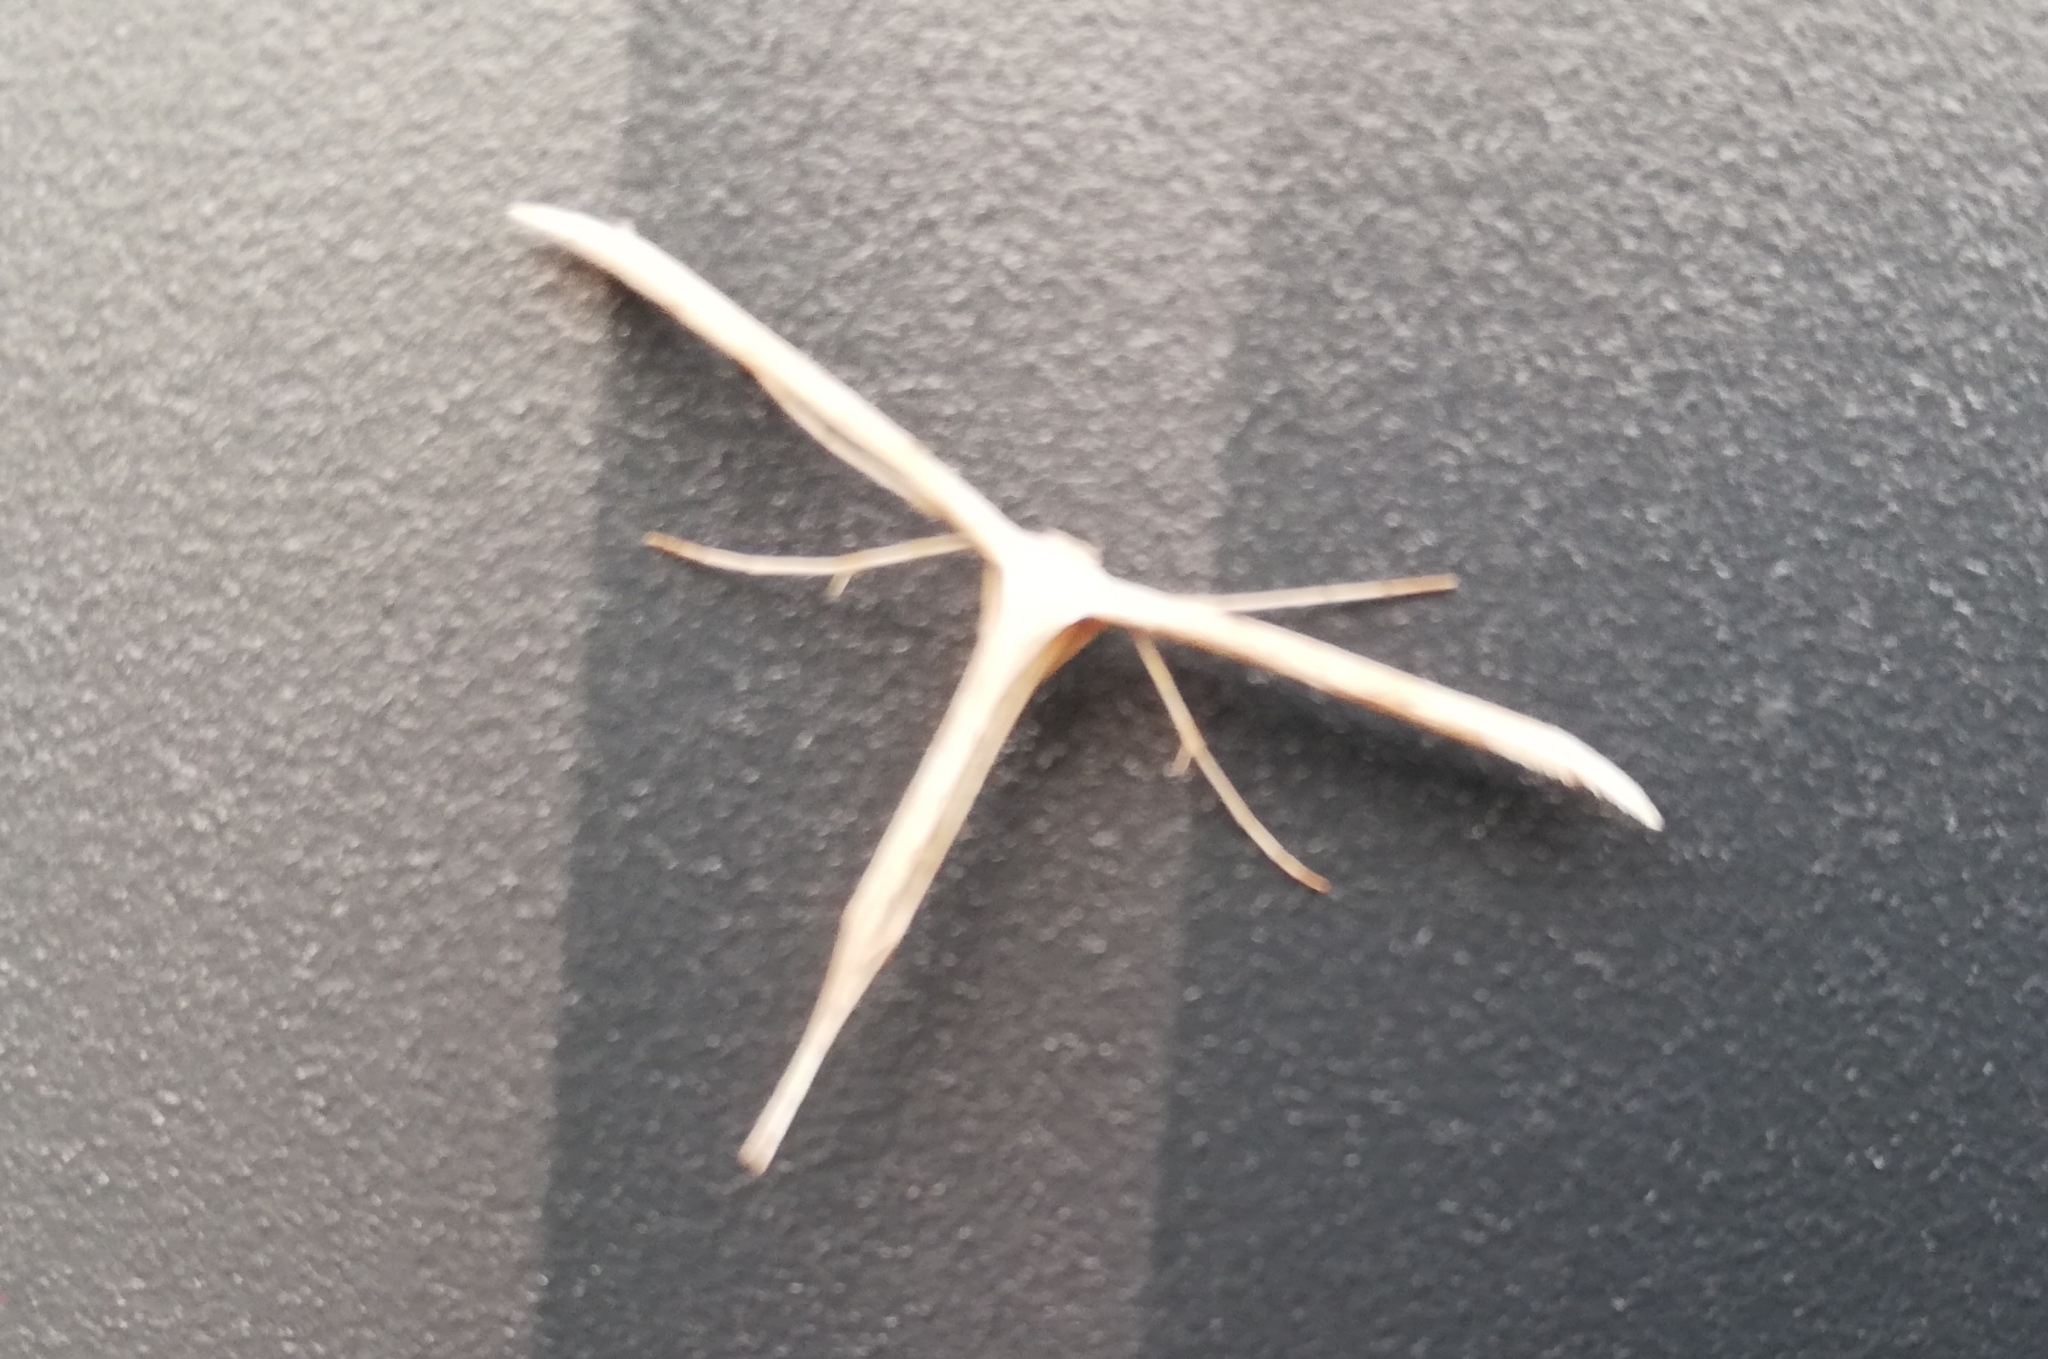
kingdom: Animalia
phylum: Arthropoda
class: Insecta
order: Lepidoptera
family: Pterophoridae
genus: Emmelina
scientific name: Emmelina monodactyla
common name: Common plume
